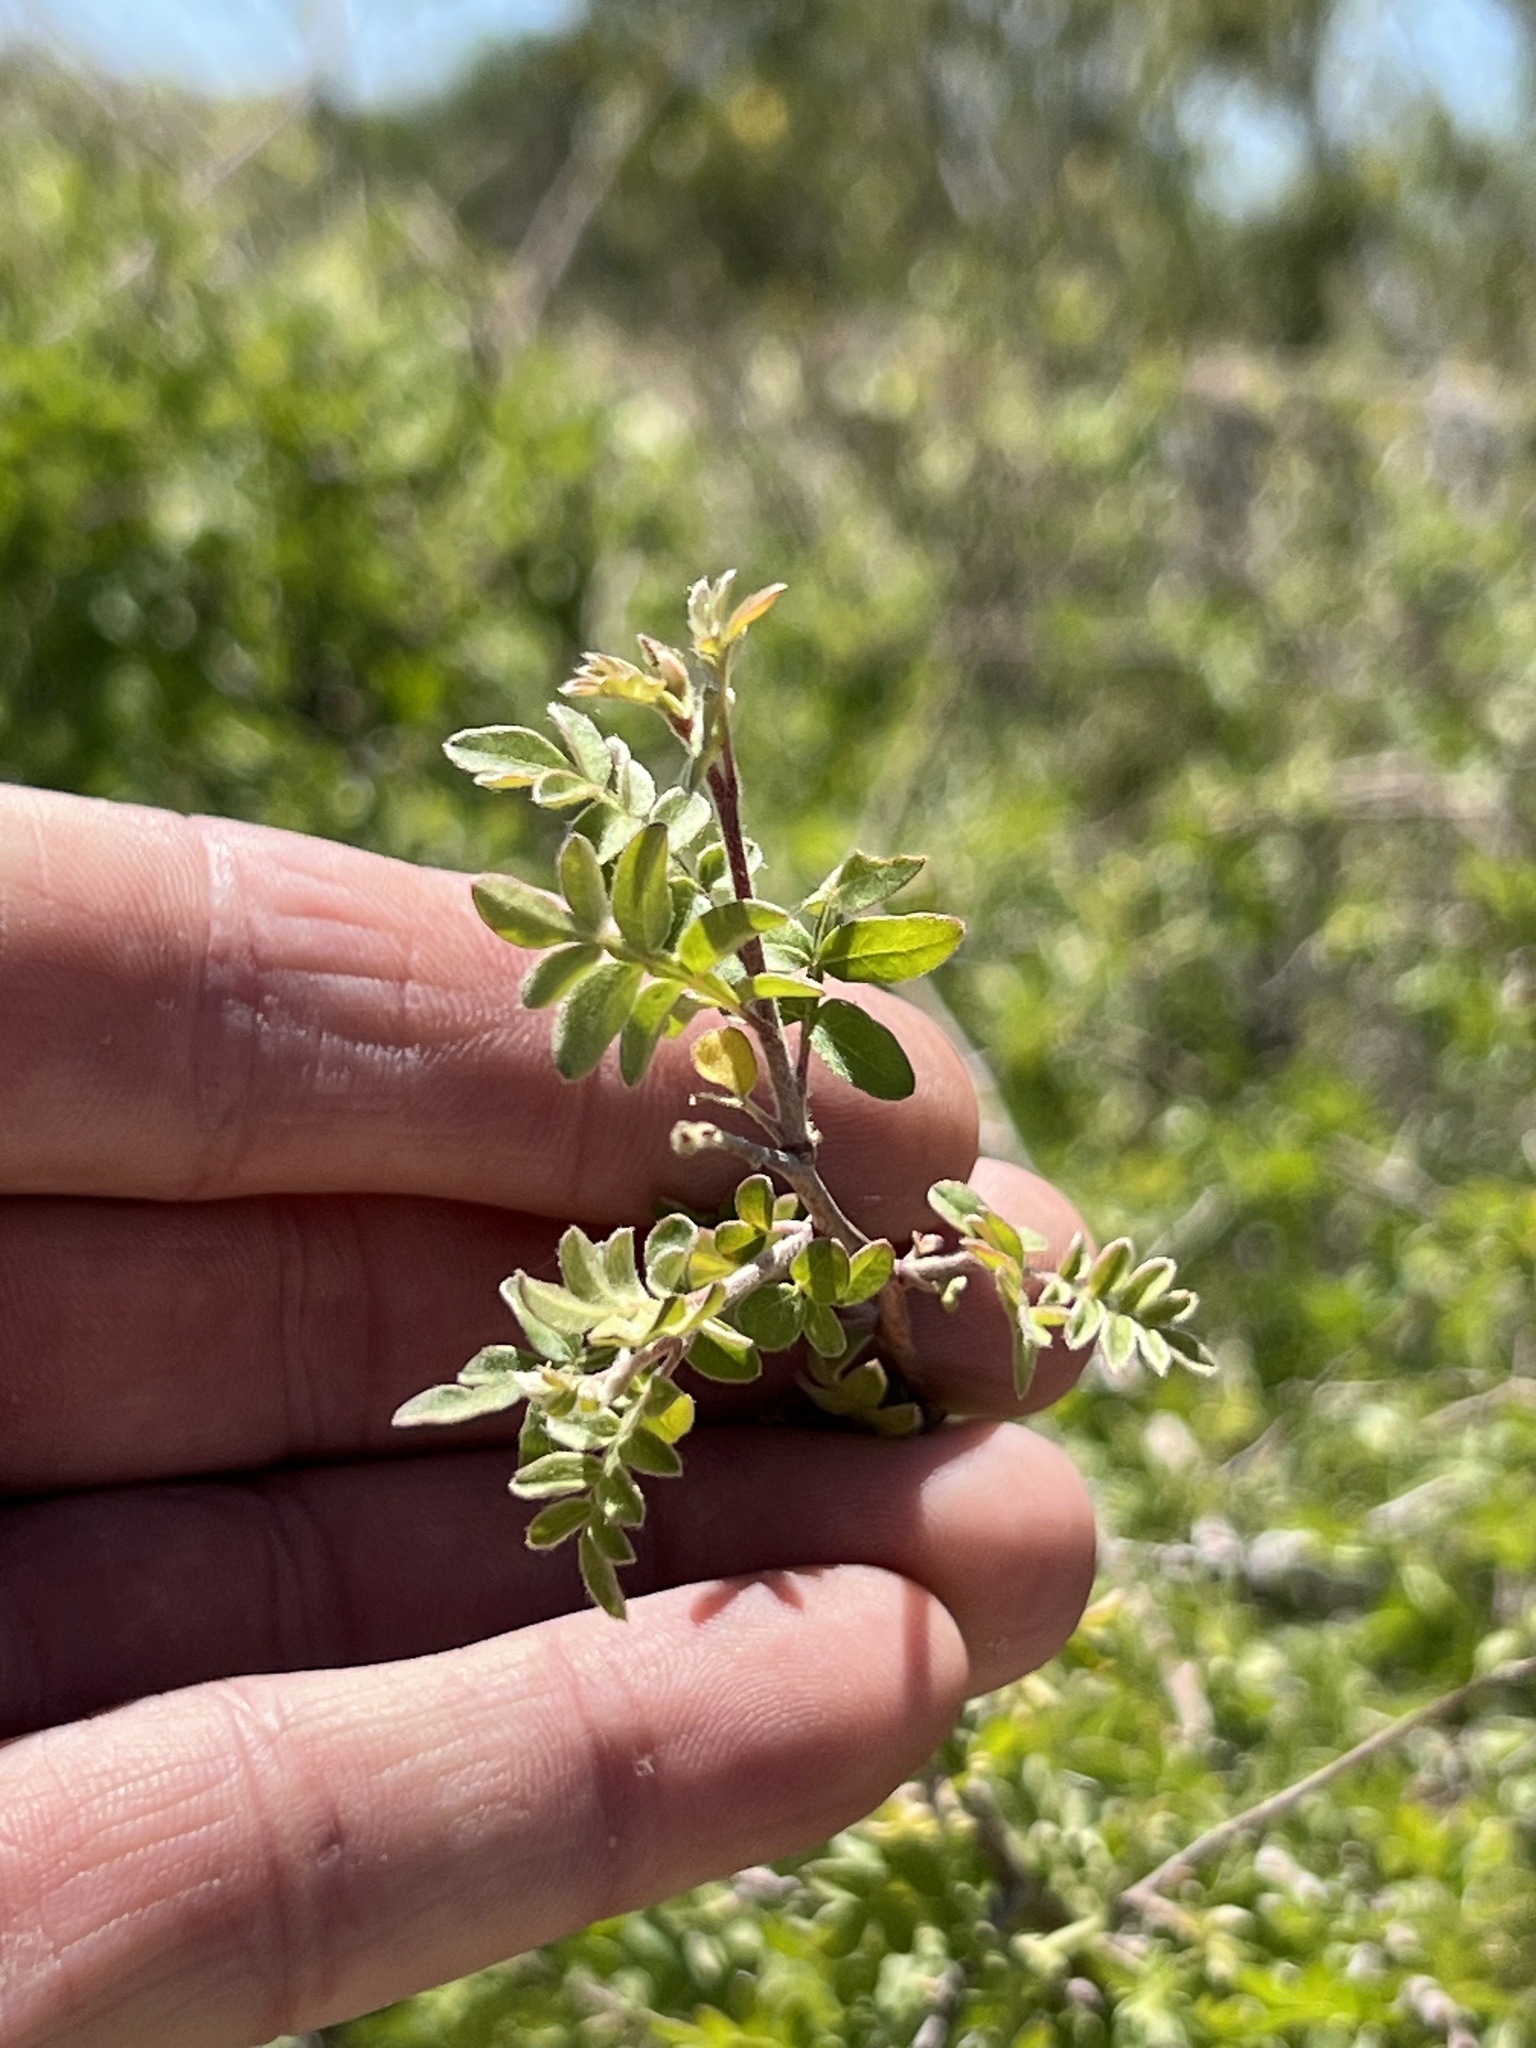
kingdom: Plantae
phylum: Tracheophyta
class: Magnoliopsida
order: Sapindales
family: Anacardiaceae
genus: Rhus
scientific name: Rhus microphylla
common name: Desert sumac
